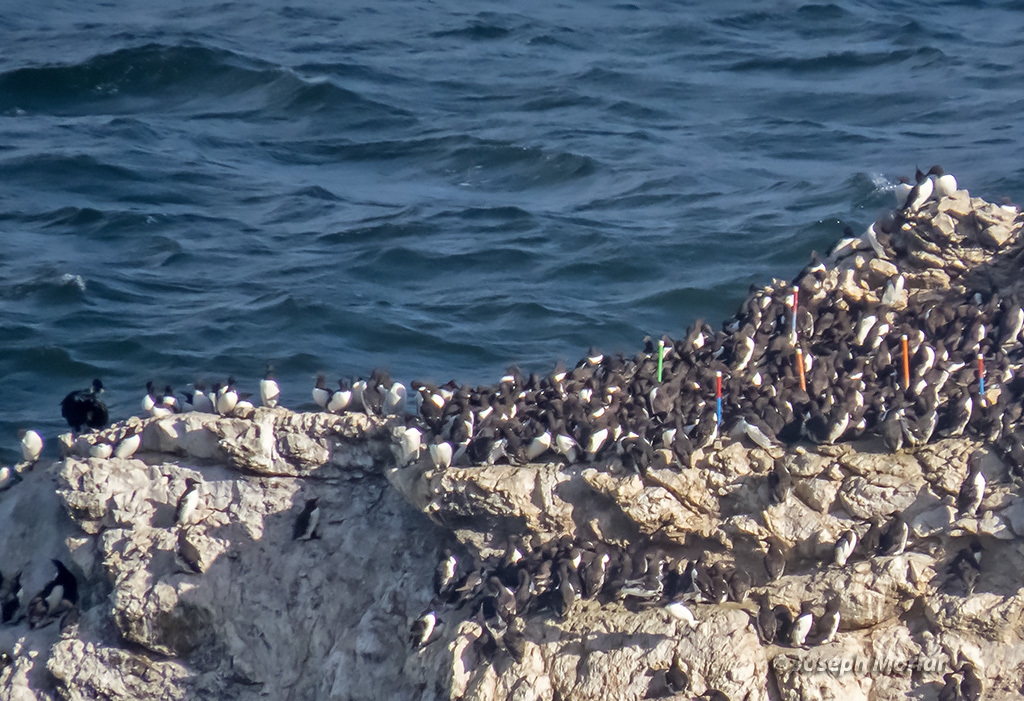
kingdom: Animalia
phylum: Chordata
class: Aves
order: Charadriiformes
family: Alcidae
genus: Uria
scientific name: Uria aalge
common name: Common murre
